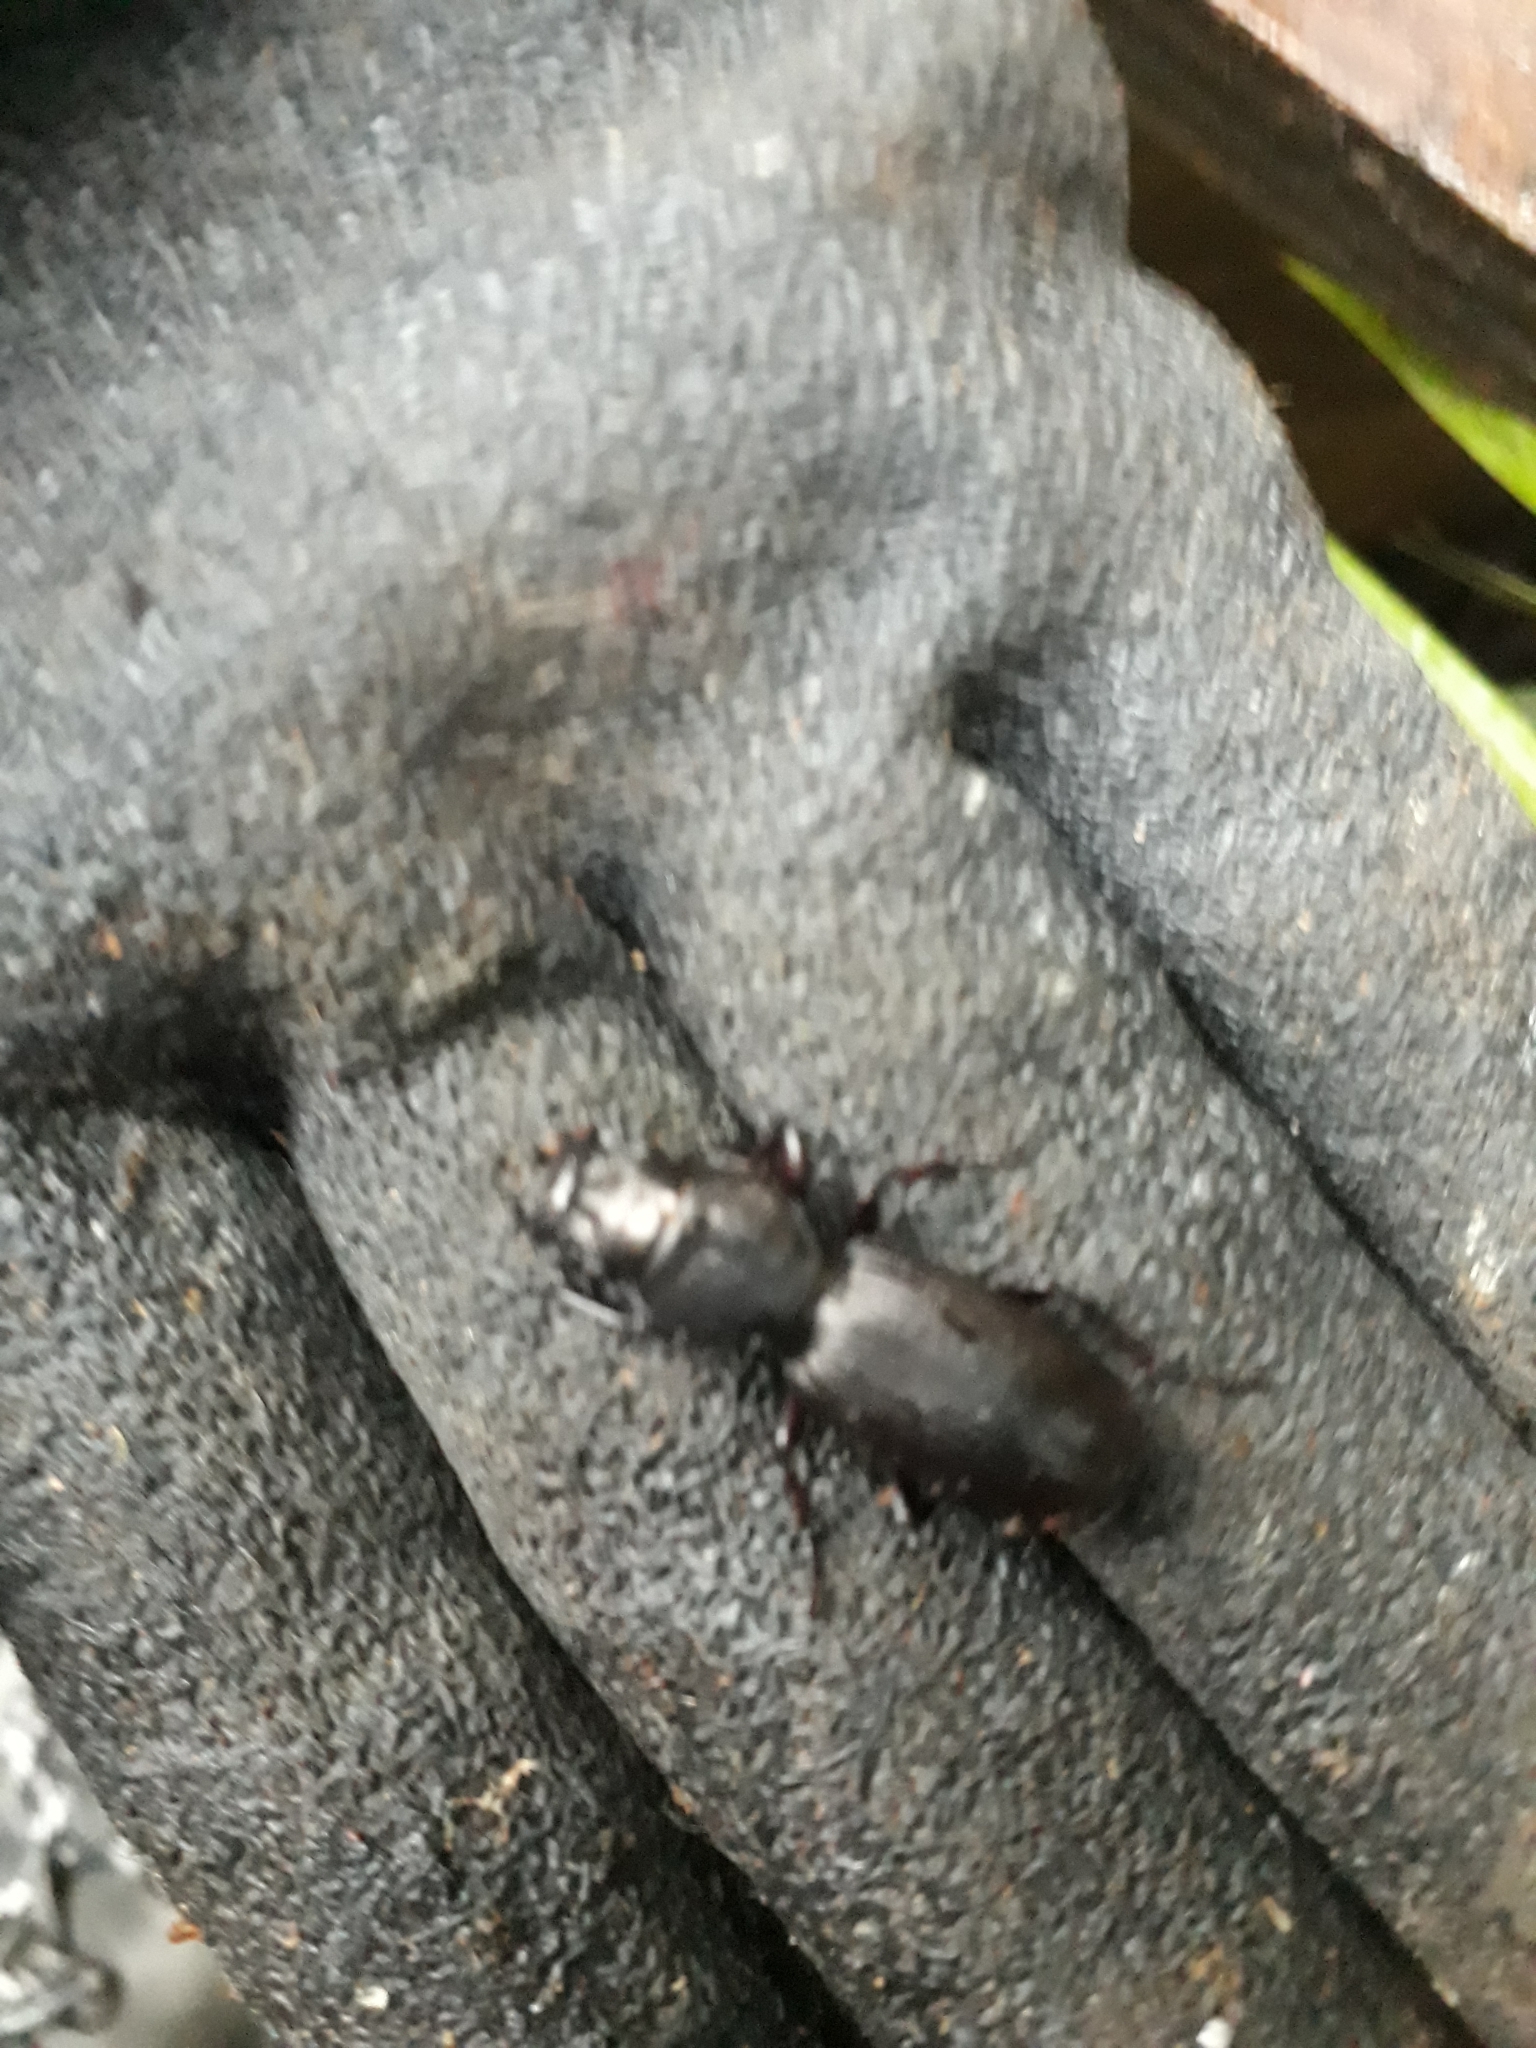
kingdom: Animalia
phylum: Arthropoda
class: Insecta
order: Coleoptera
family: Carabidae
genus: Mecodema
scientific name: Mecodema spiniferum
